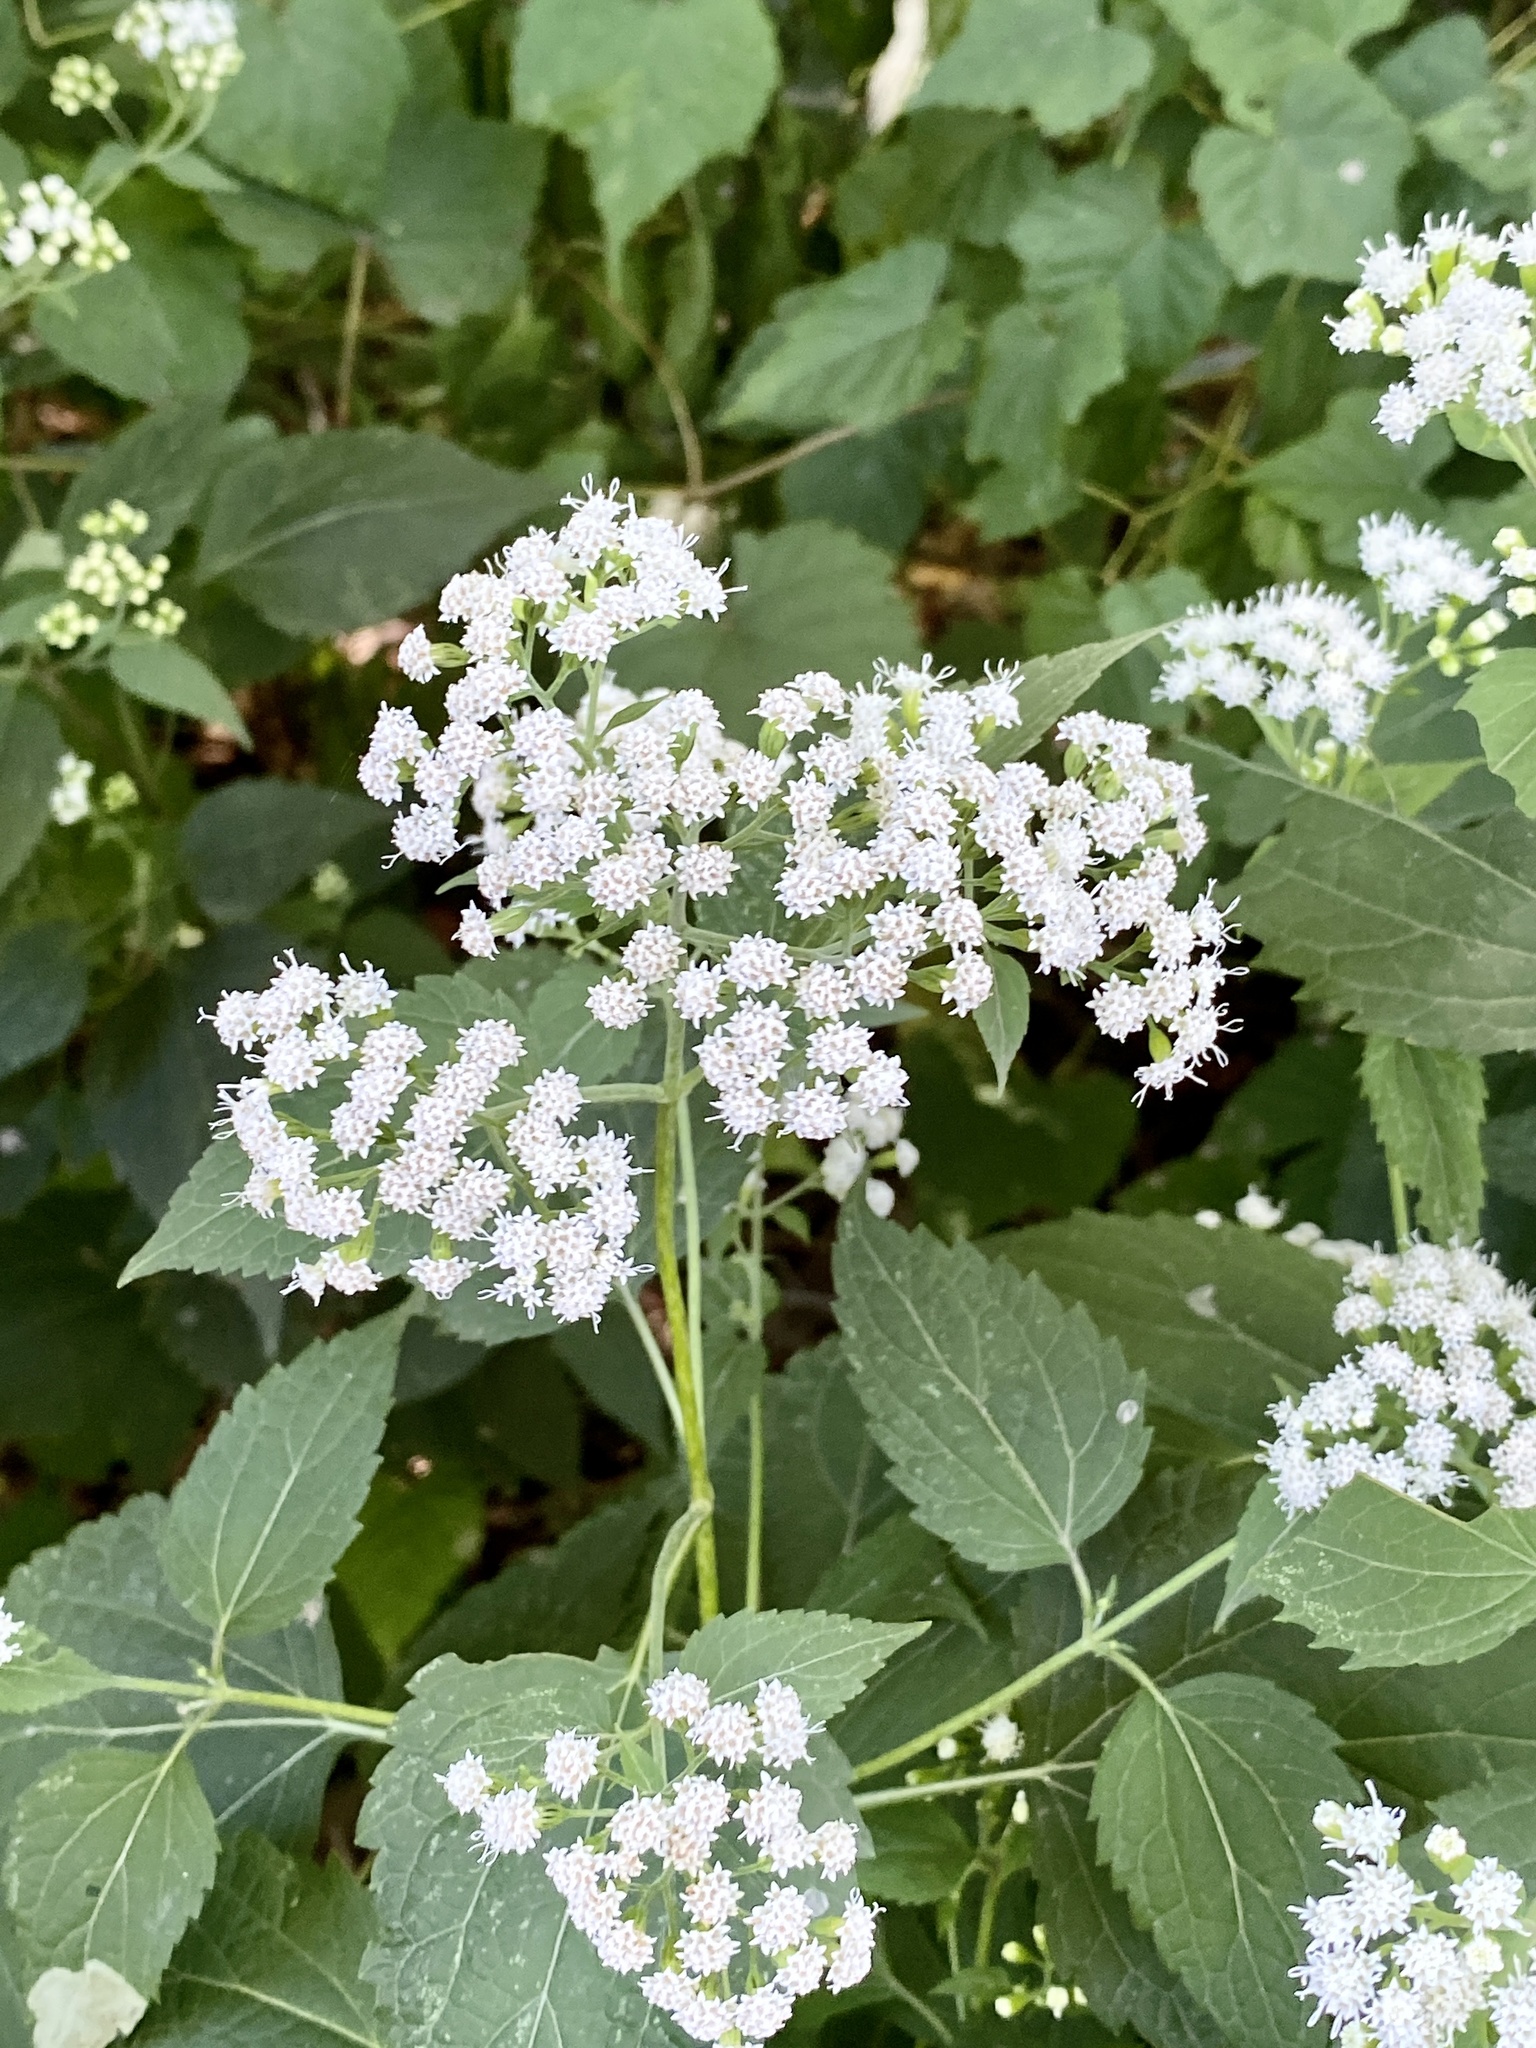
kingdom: Plantae
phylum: Tracheophyta
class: Magnoliopsida
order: Asterales
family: Asteraceae
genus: Ageratina
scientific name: Ageratina altissima
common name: White snakeroot
